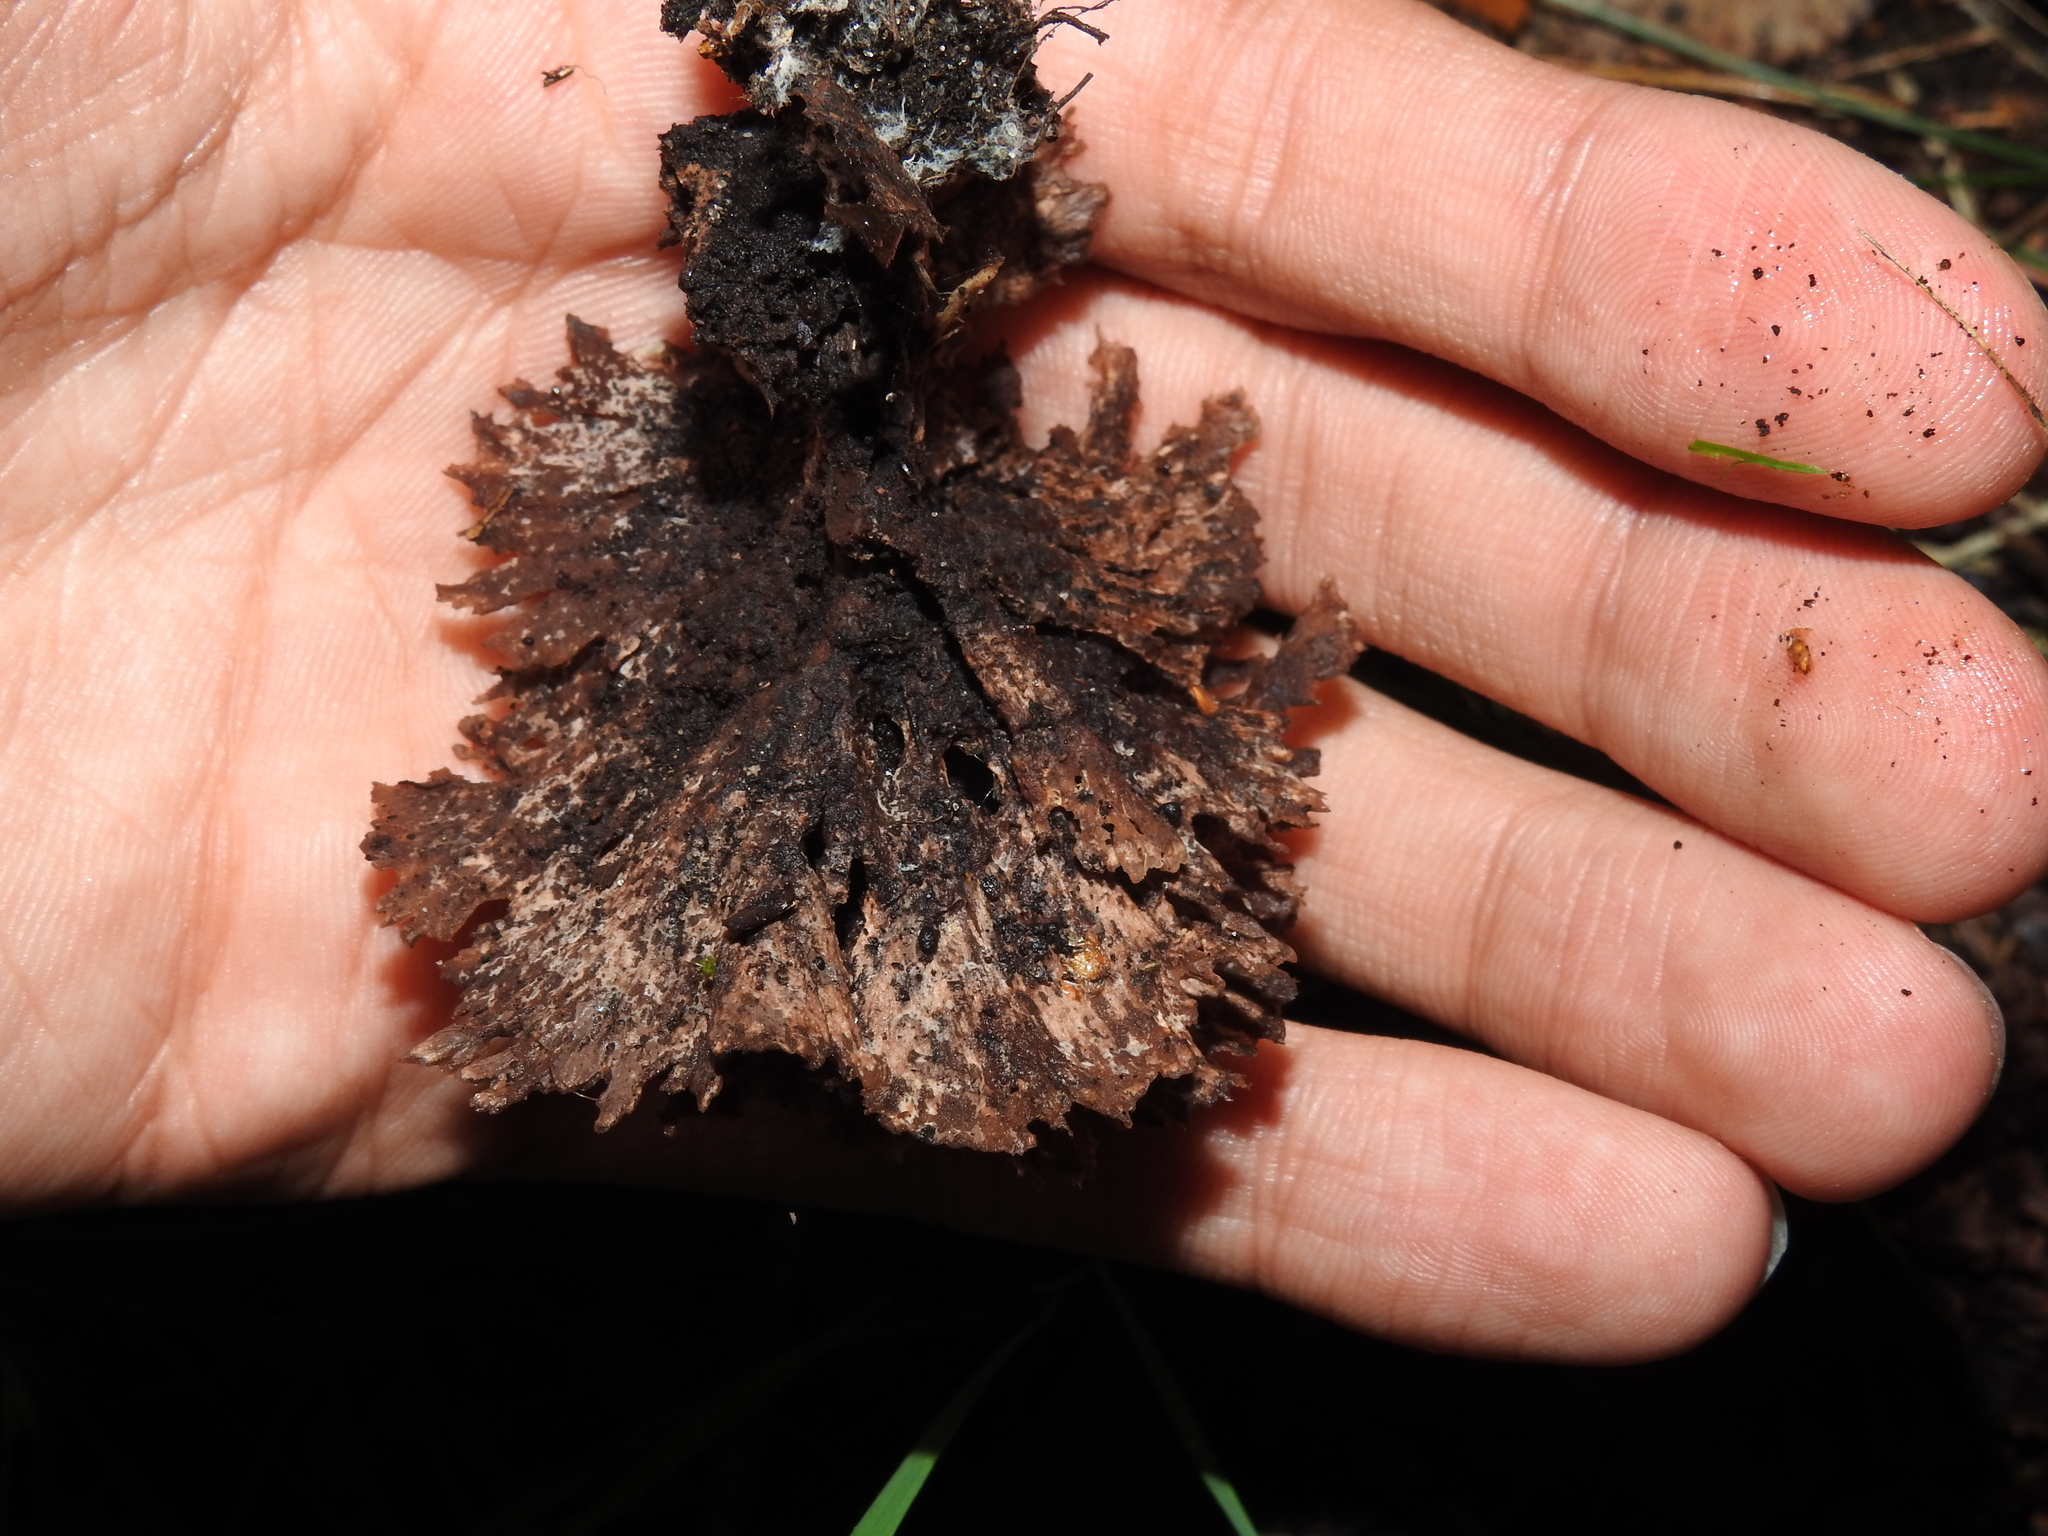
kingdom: Fungi
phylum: Basidiomycota
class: Agaricomycetes
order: Thelephorales
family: Thelephoraceae
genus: Thelephora
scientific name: Thelephora terrestris
